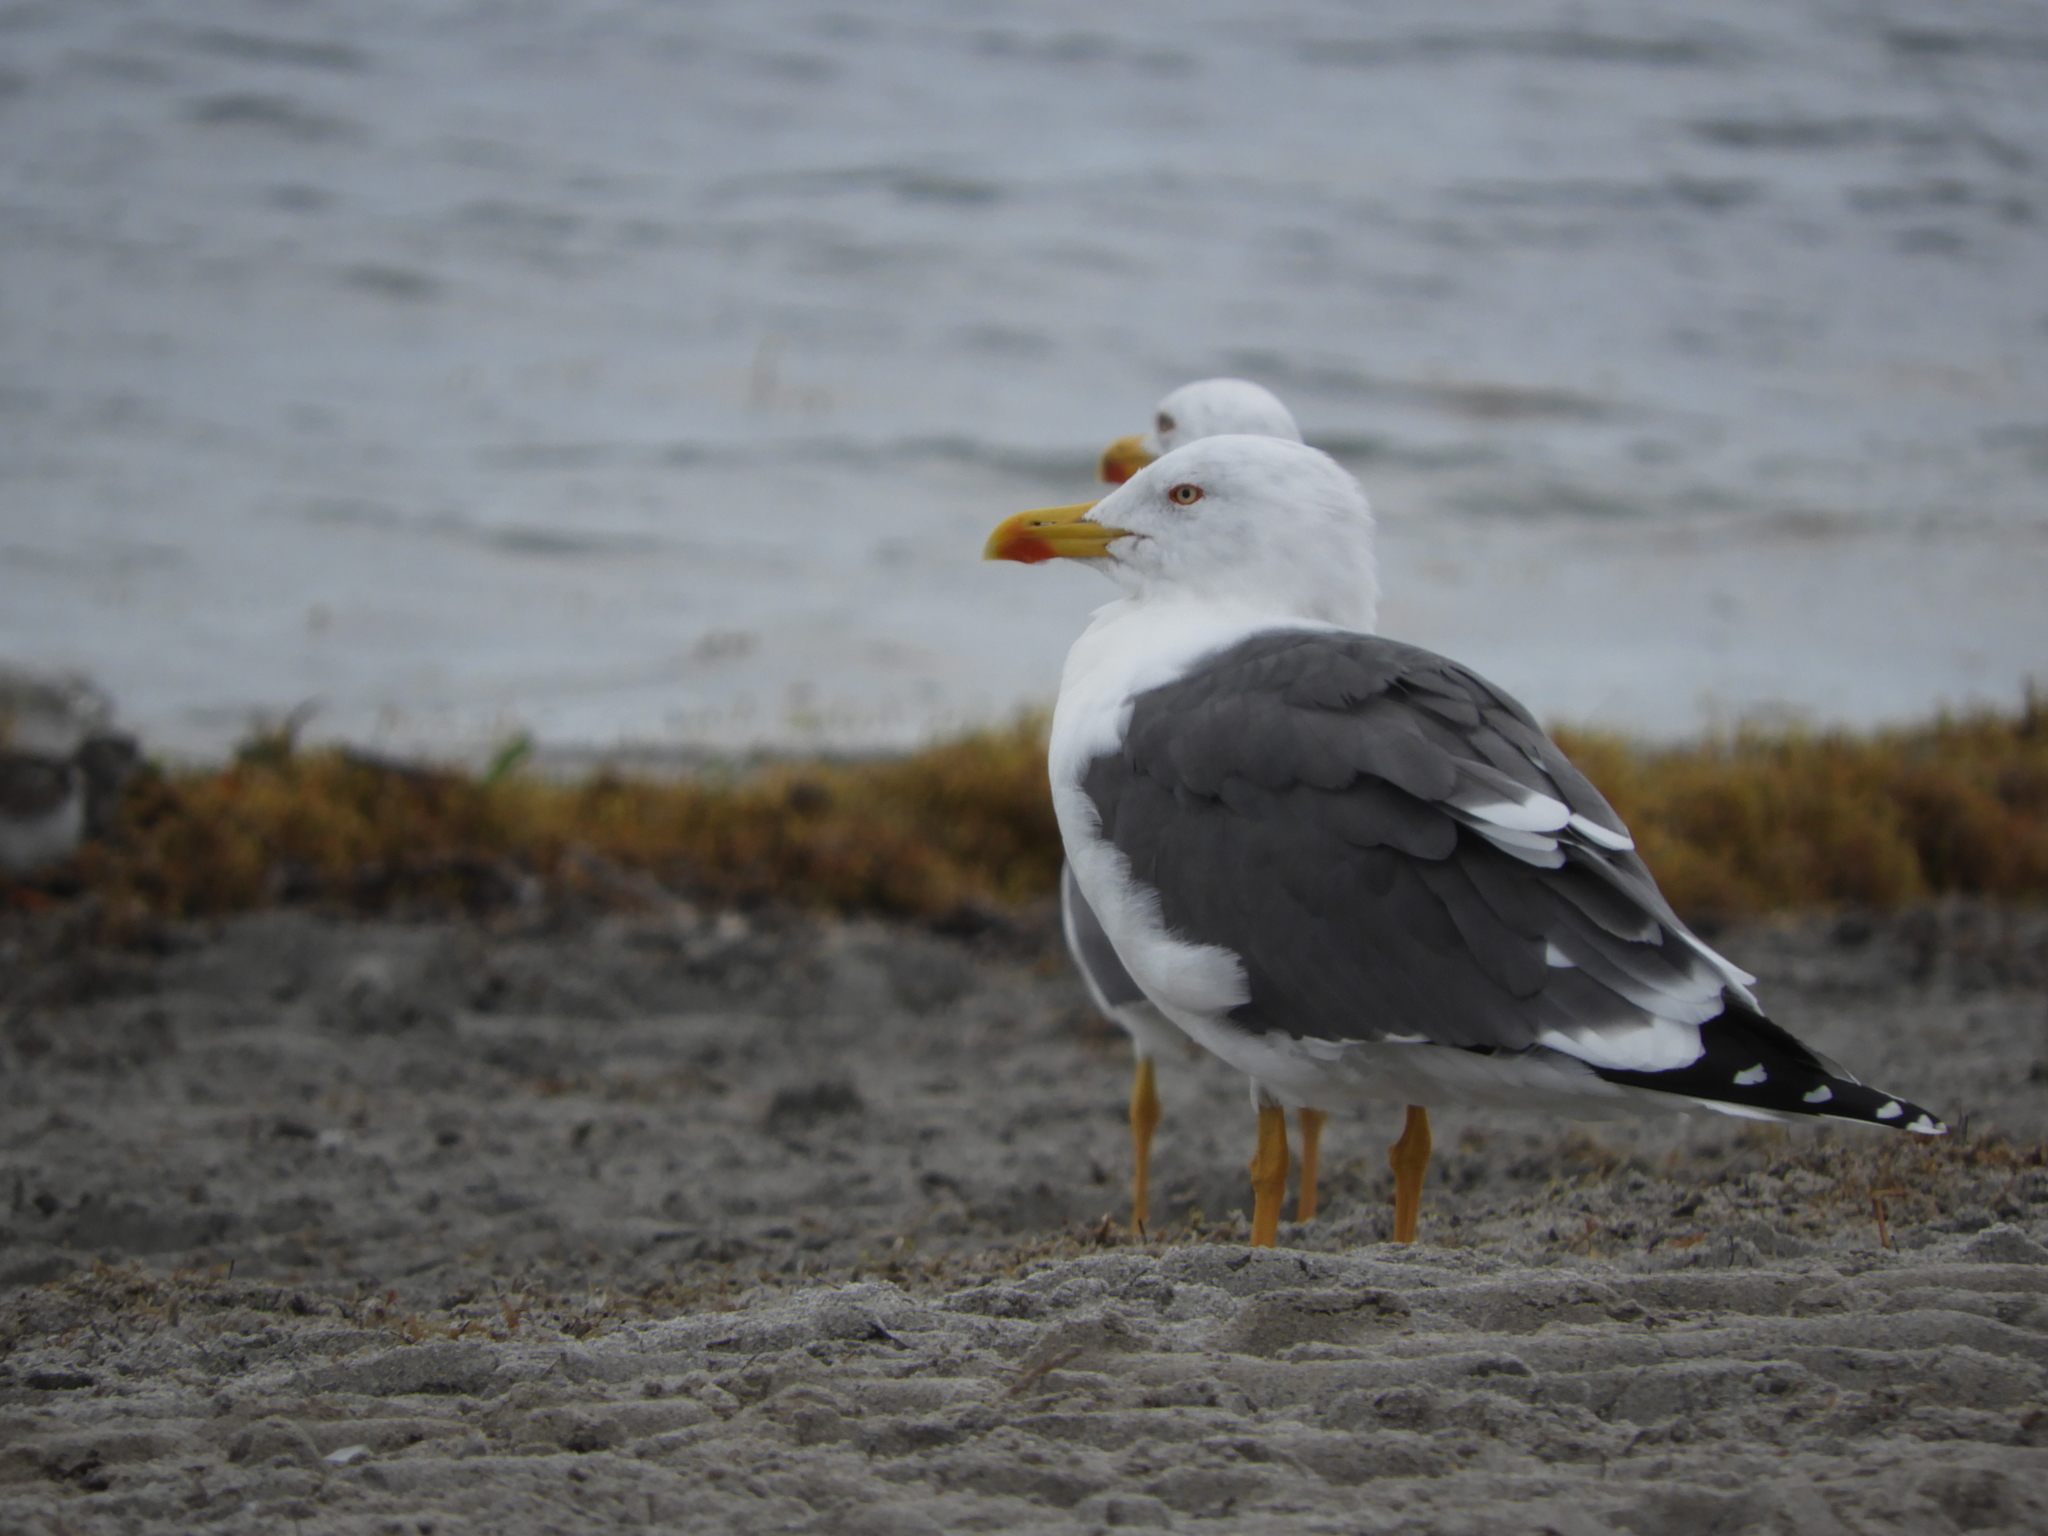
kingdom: Animalia
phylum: Chordata
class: Aves
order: Charadriiformes
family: Laridae
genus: Larus
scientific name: Larus fuscus
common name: Lesser black-backed gull
